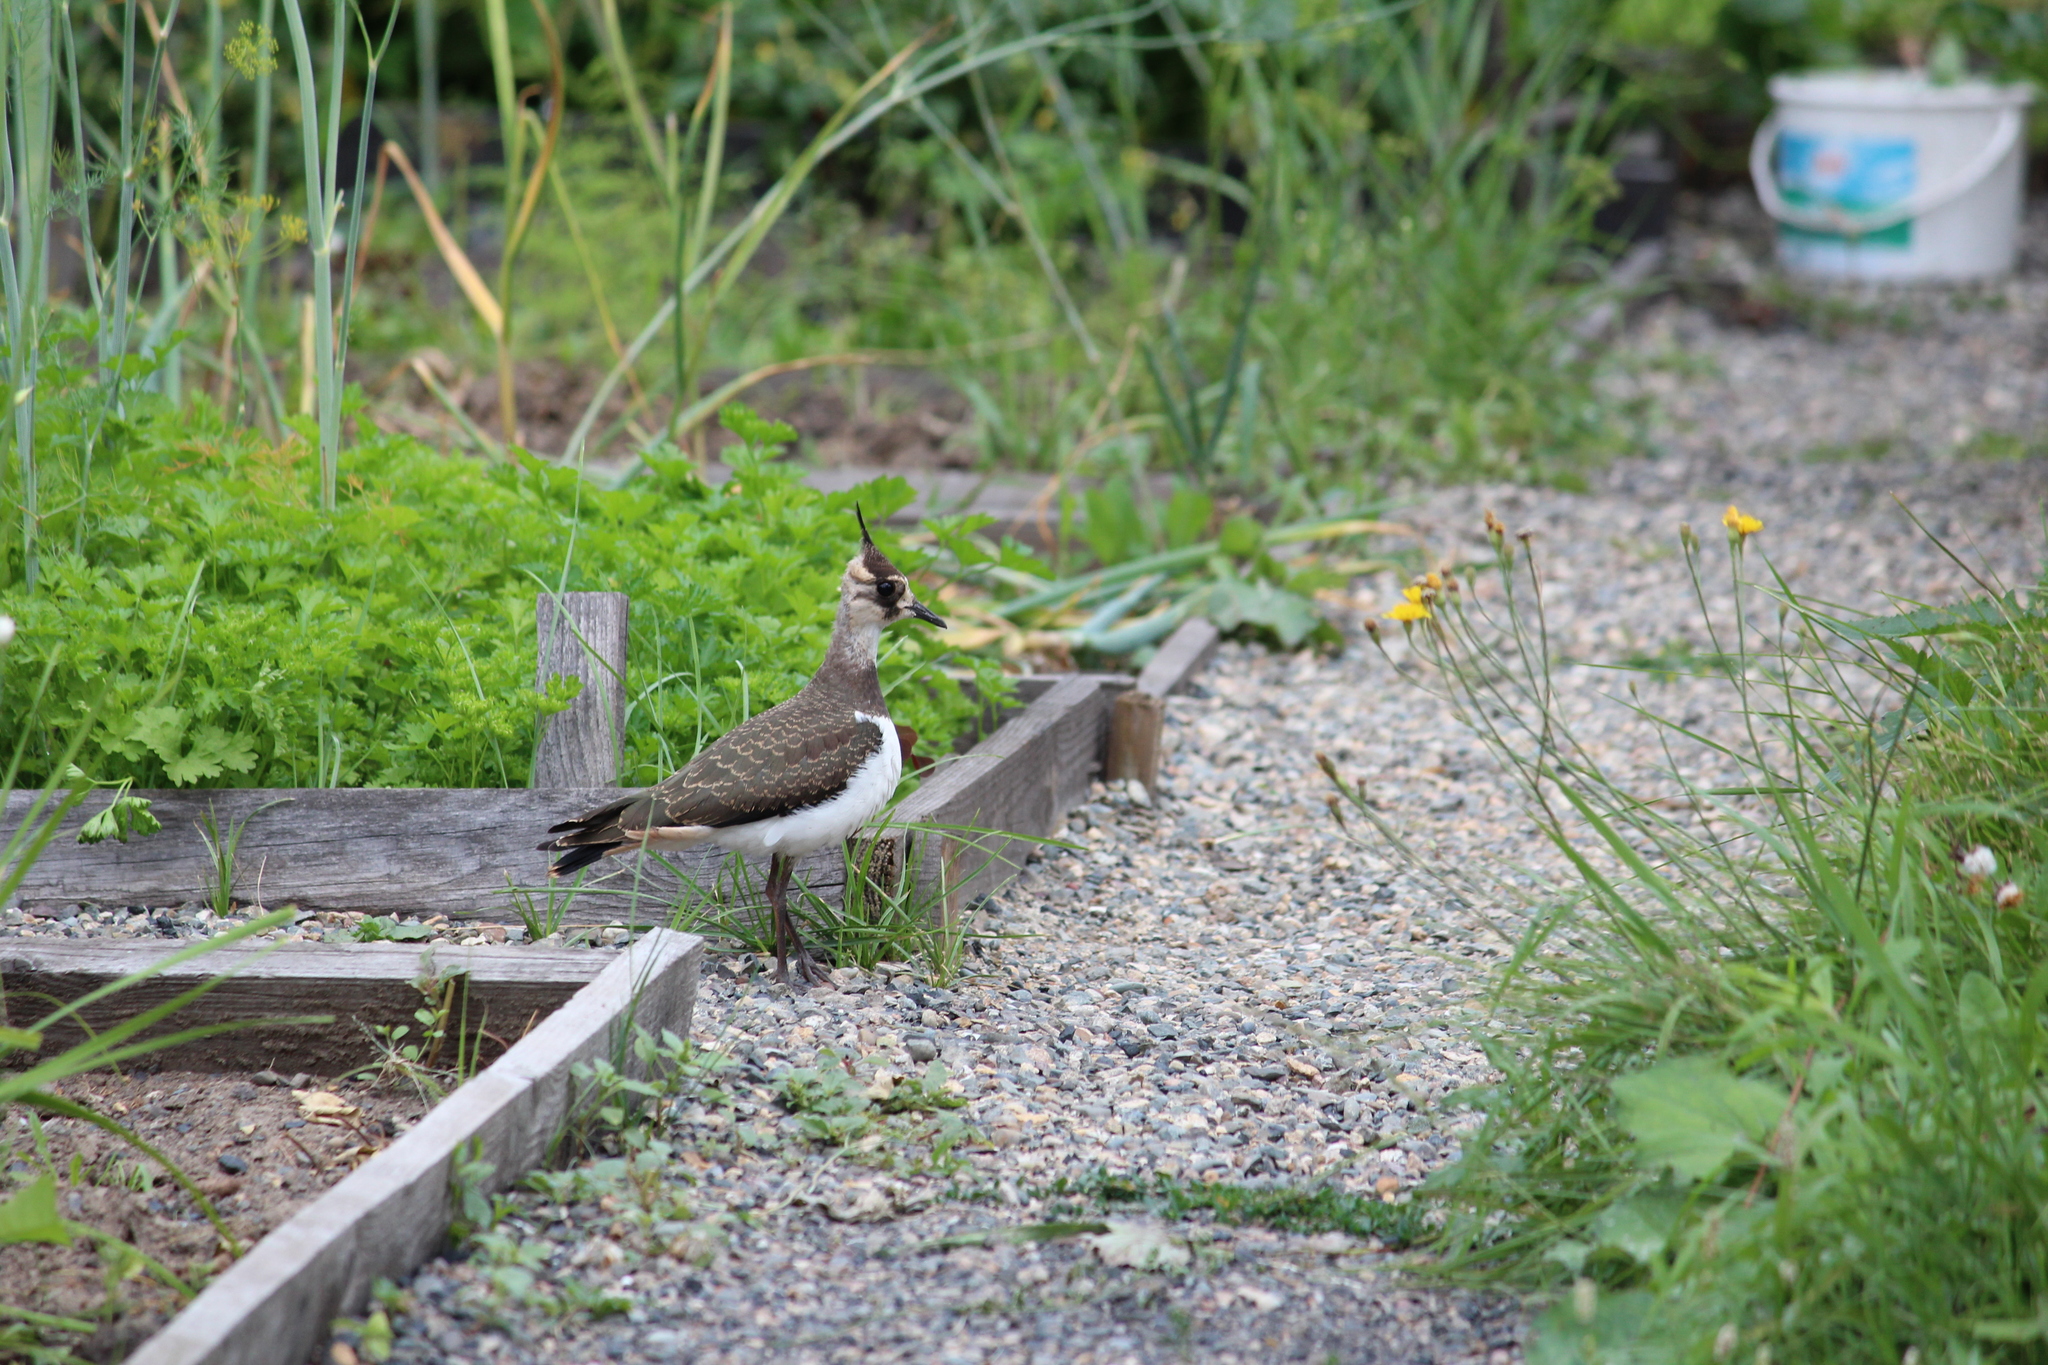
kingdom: Animalia
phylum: Chordata
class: Aves
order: Charadriiformes
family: Charadriidae
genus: Vanellus
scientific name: Vanellus vanellus
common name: Northern lapwing
